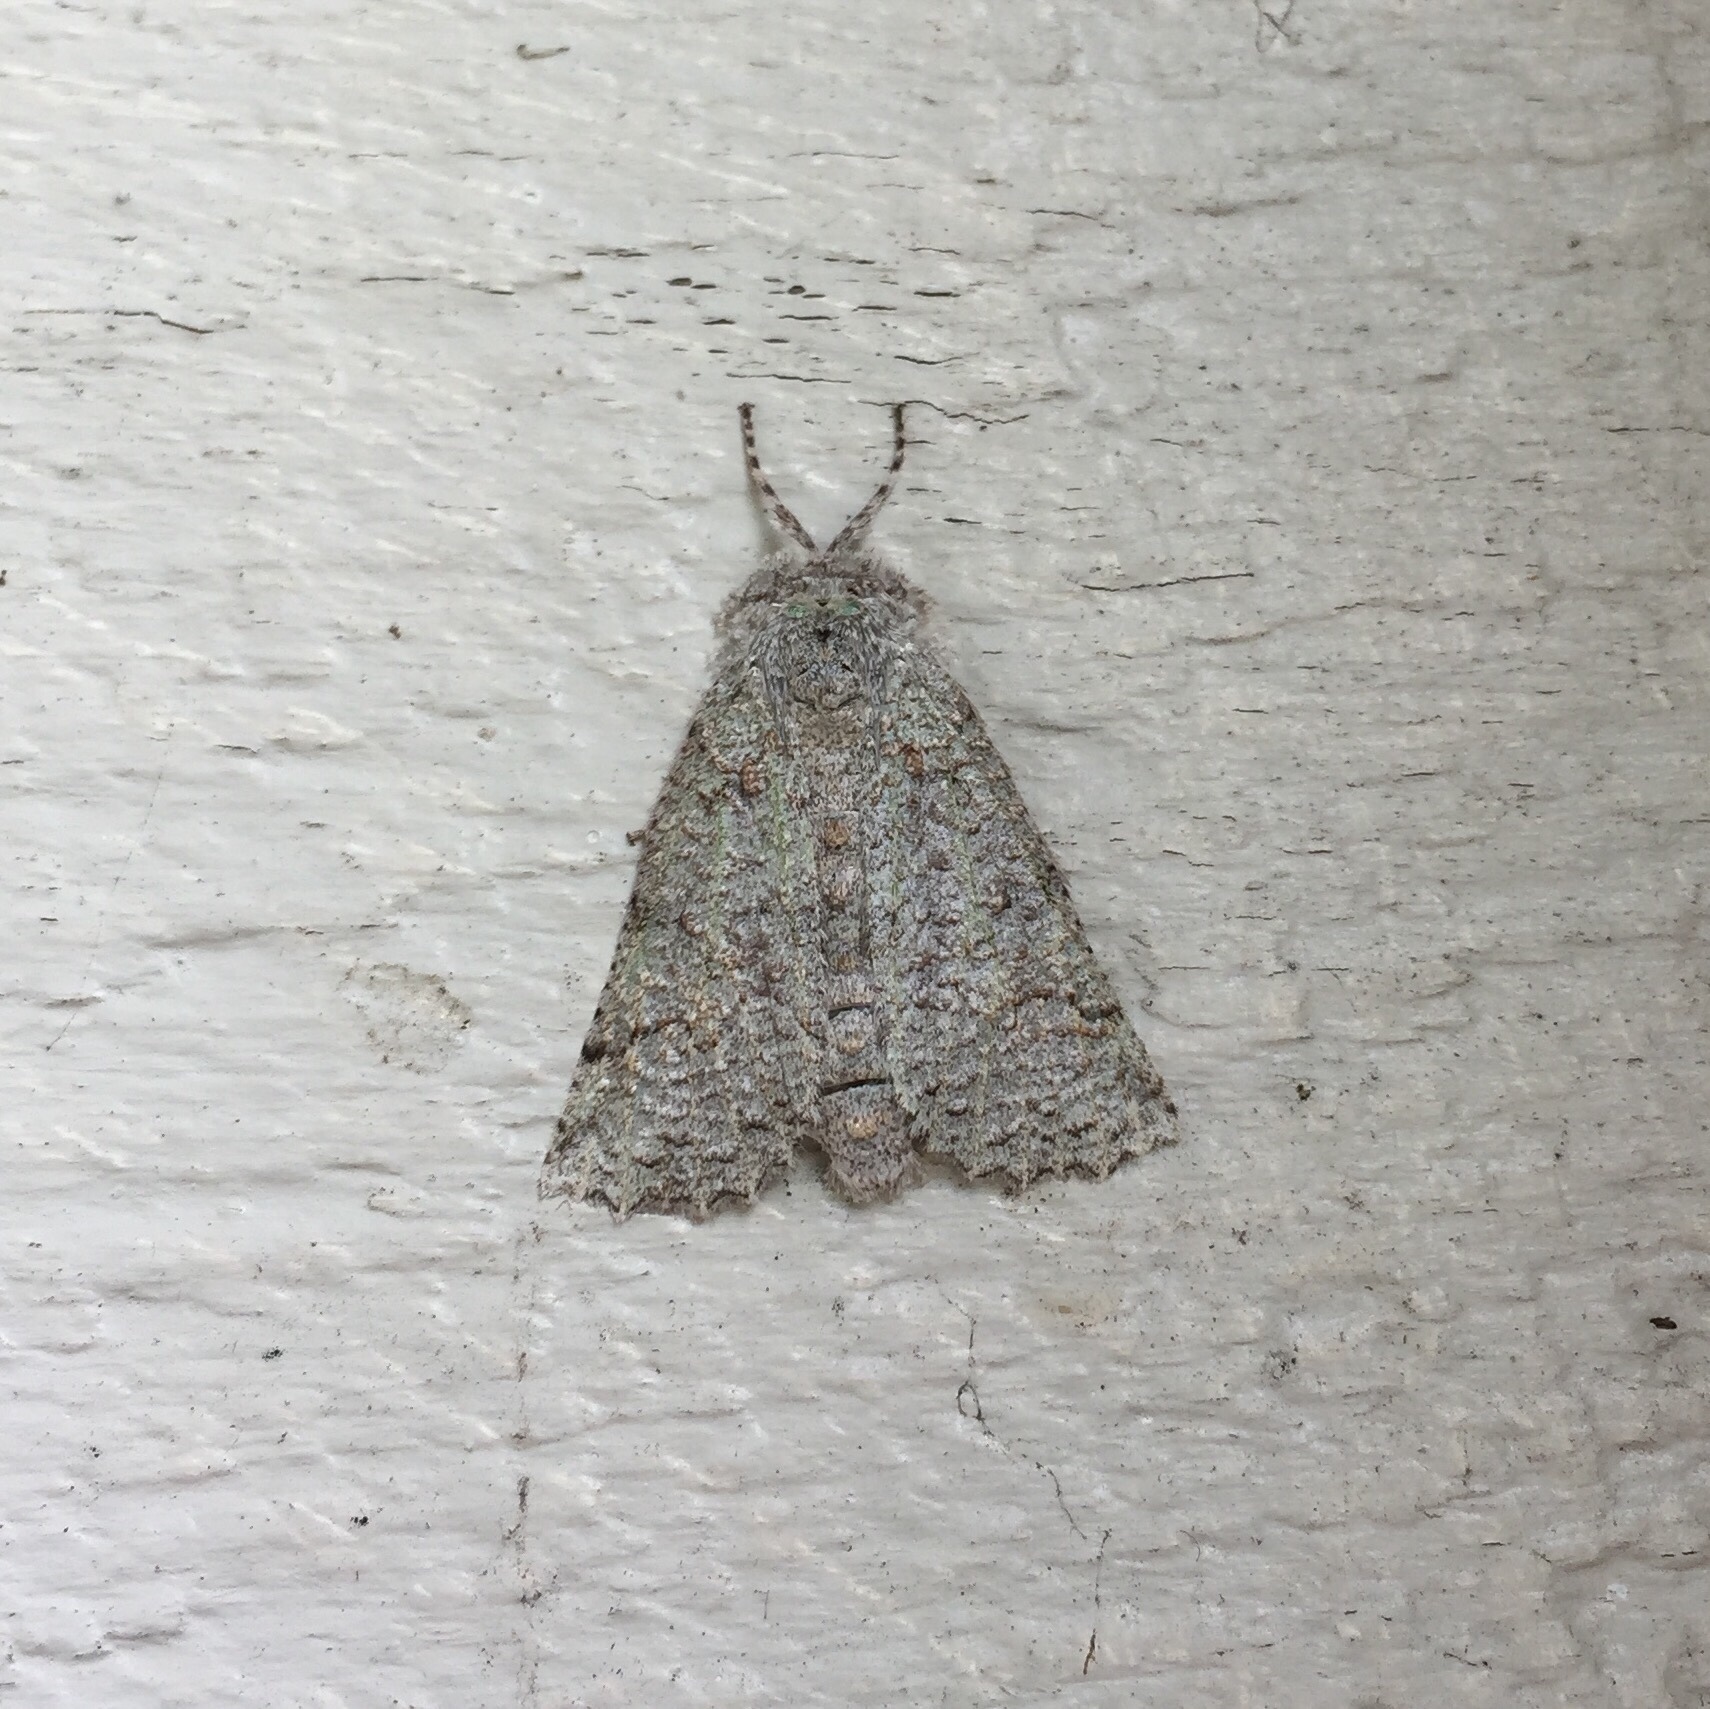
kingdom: Animalia
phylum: Arthropoda
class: Insecta
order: Lepidoptera
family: Geometridae
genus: Declana
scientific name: Declana floccosa
